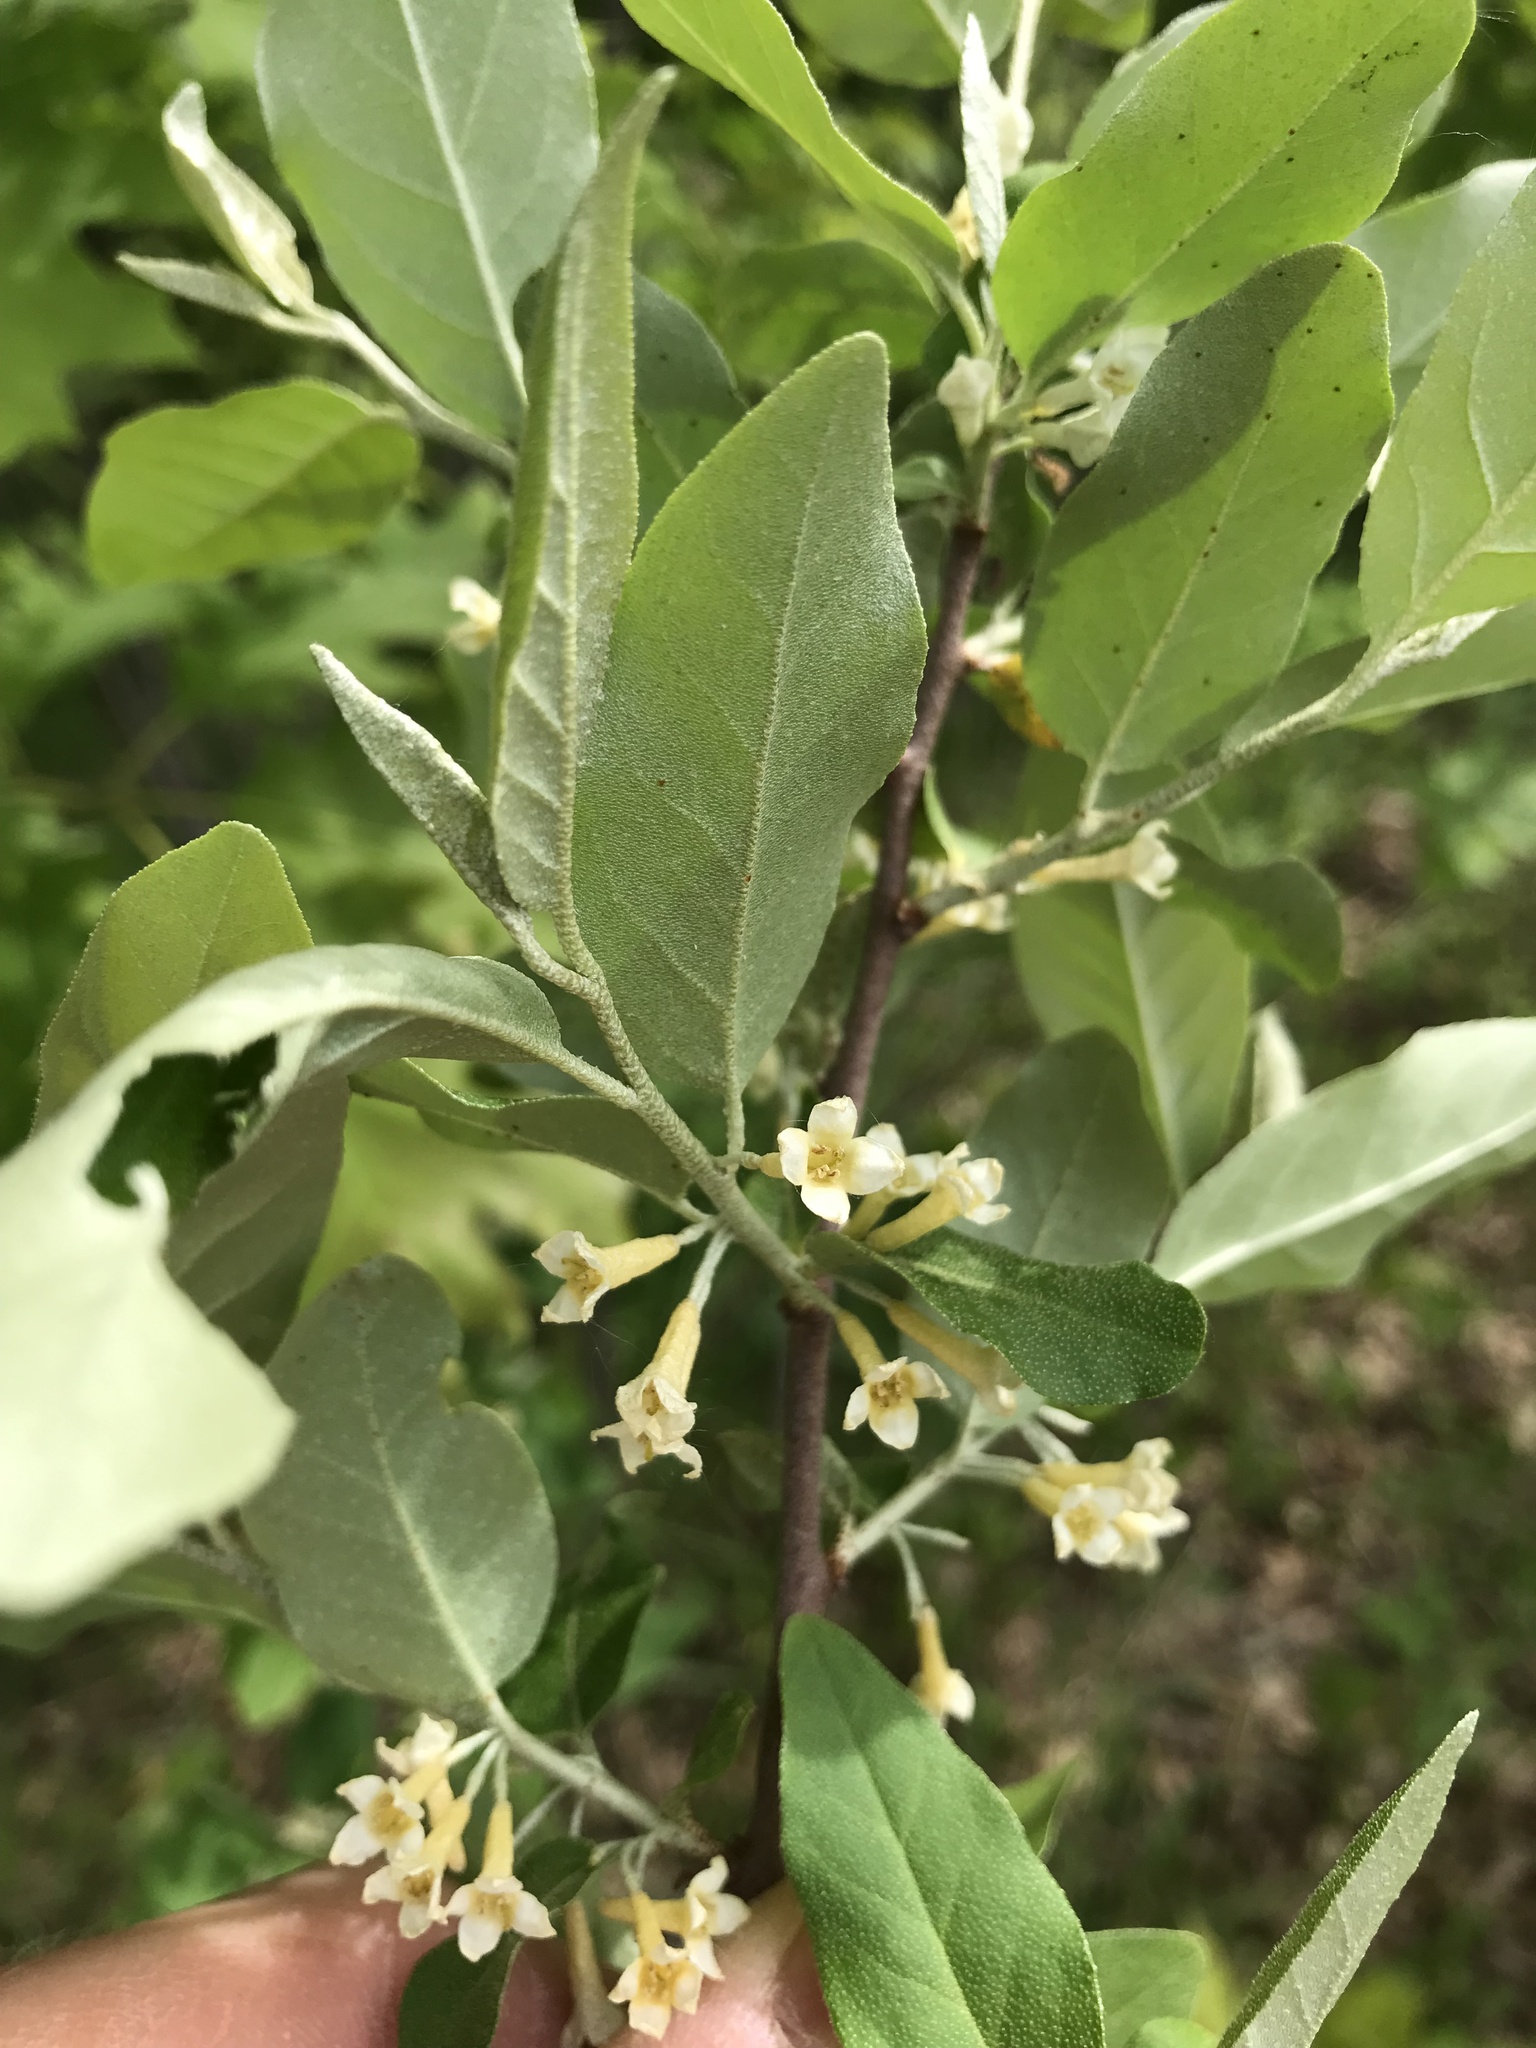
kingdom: Plantae
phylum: Tracheophyta
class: Magnoliopsida
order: Rosales
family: Elaeagnaceae
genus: Elaeagnus
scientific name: Elaeagnus umbellata
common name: Autumn olive
